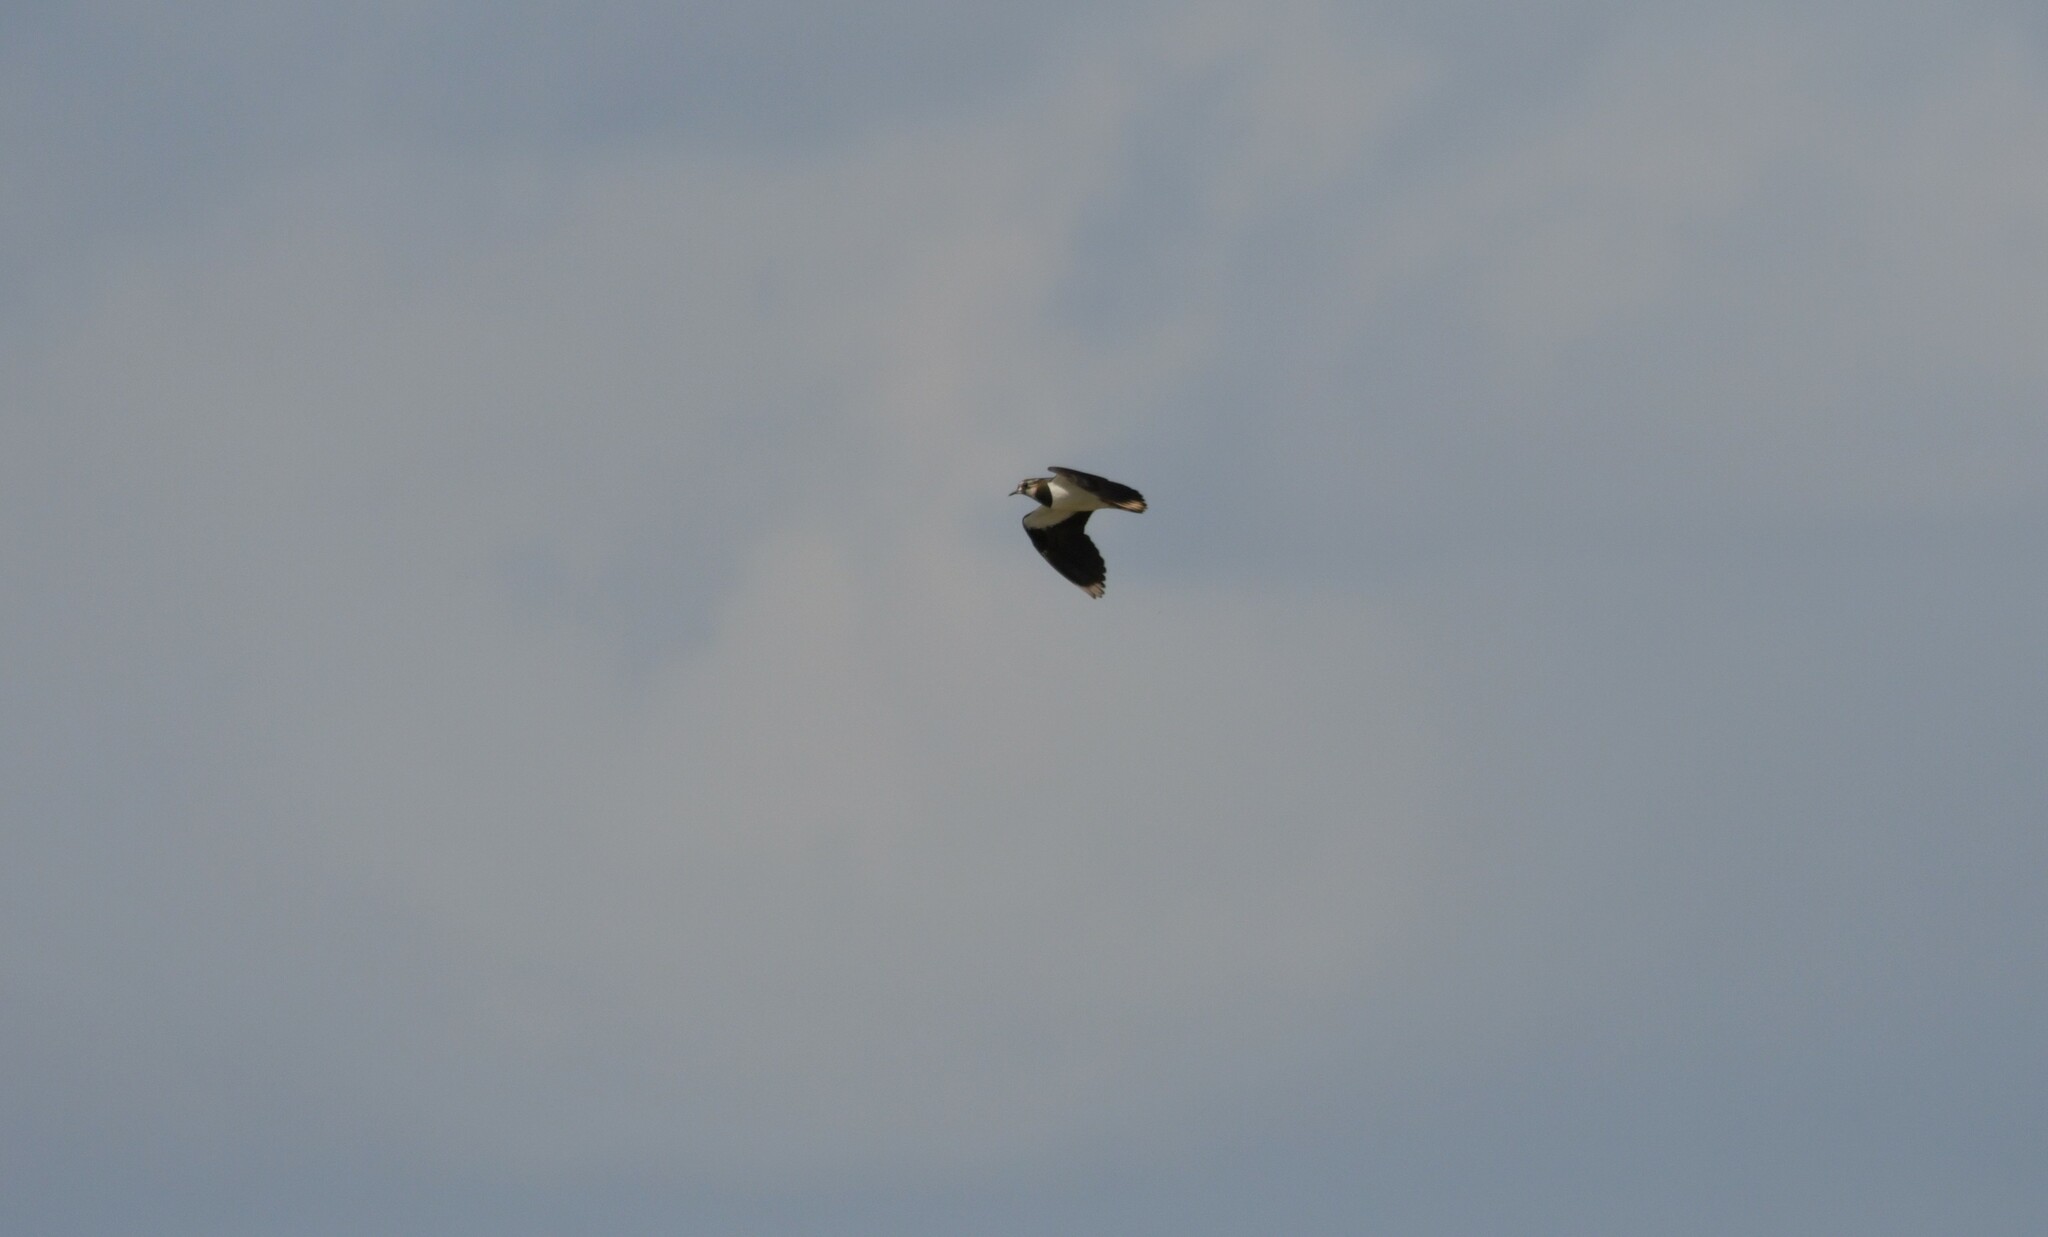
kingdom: Animalia
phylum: Chordata
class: Aves
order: Charadriiformes
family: Charadriidae
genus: Vanellus
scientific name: Vanellus vanellus
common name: Northern lapwing
